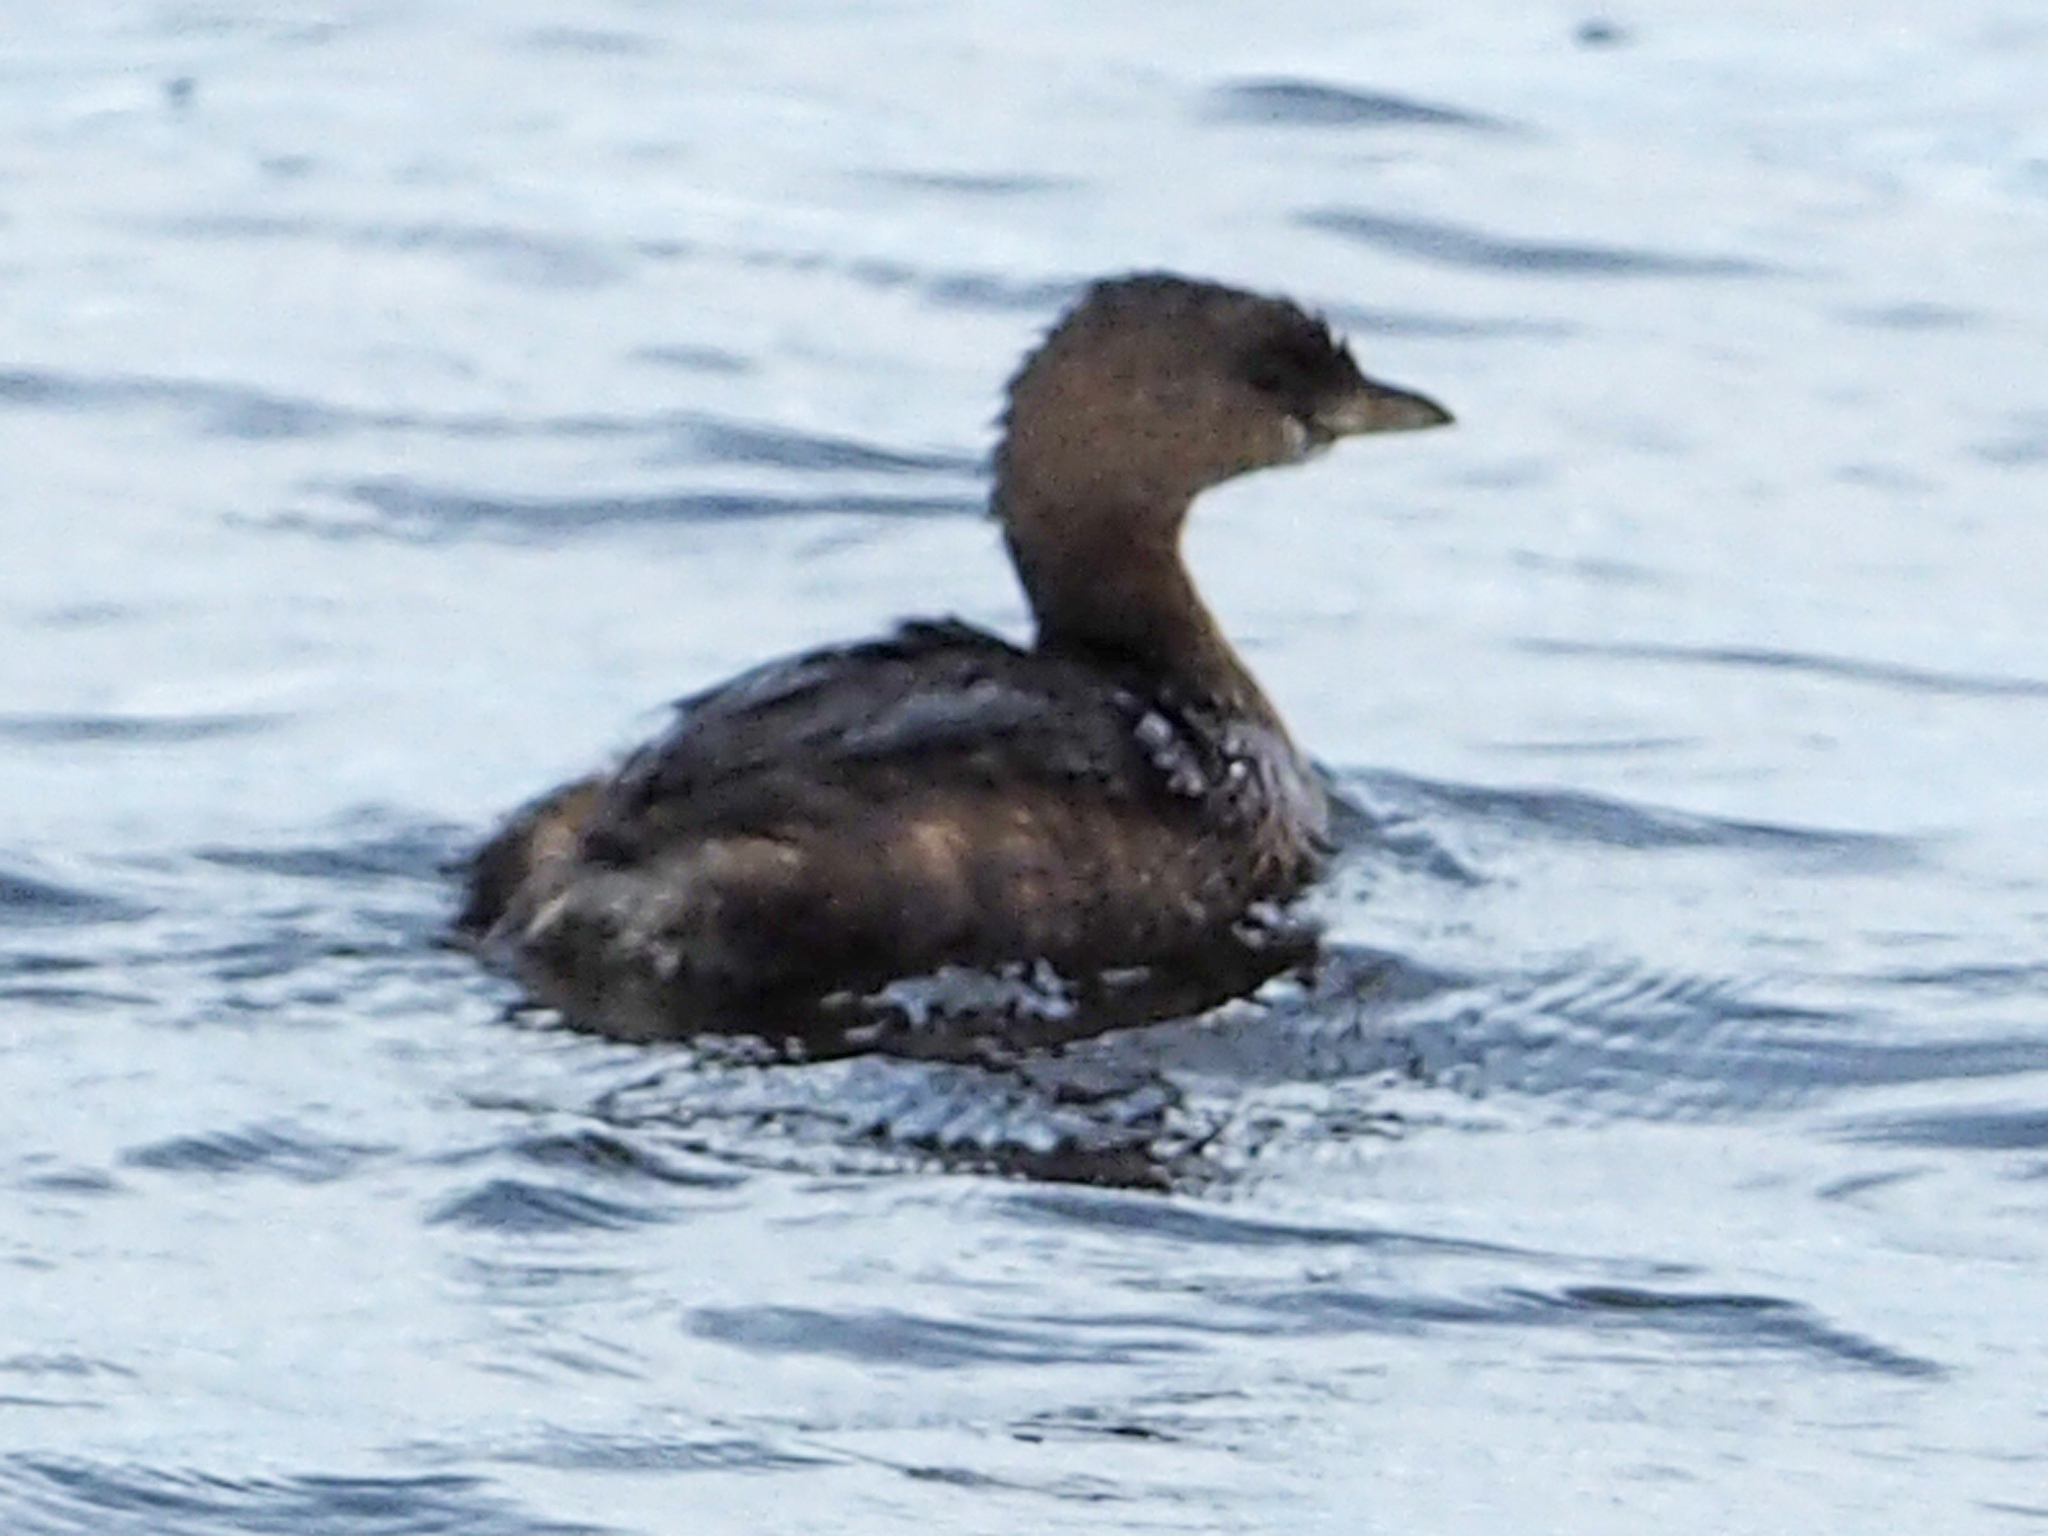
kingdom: Animalia
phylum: Chordata
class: Aves
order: Podicipediformes
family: Podicipedidae
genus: Podilymbus
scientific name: Podilymbus podiceps
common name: Pied-billed grebe
